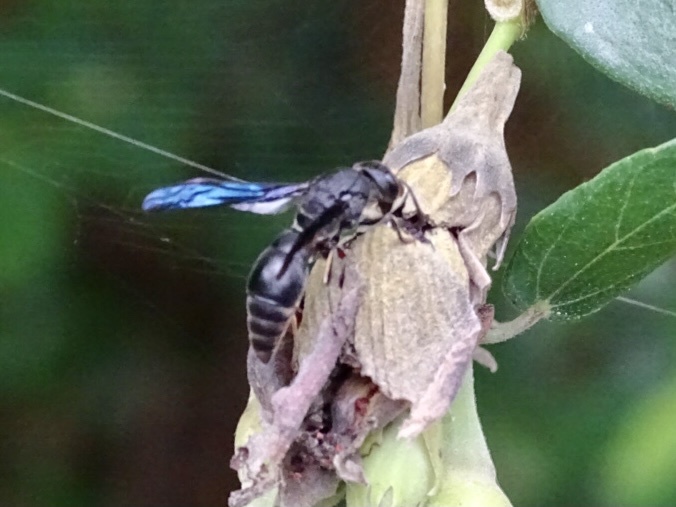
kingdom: Animalia
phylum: Arthropoda
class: Insecta
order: Hymenoptera
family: Eumenidae
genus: Orancistrocerus
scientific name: Orancistrocerus aterrimus
